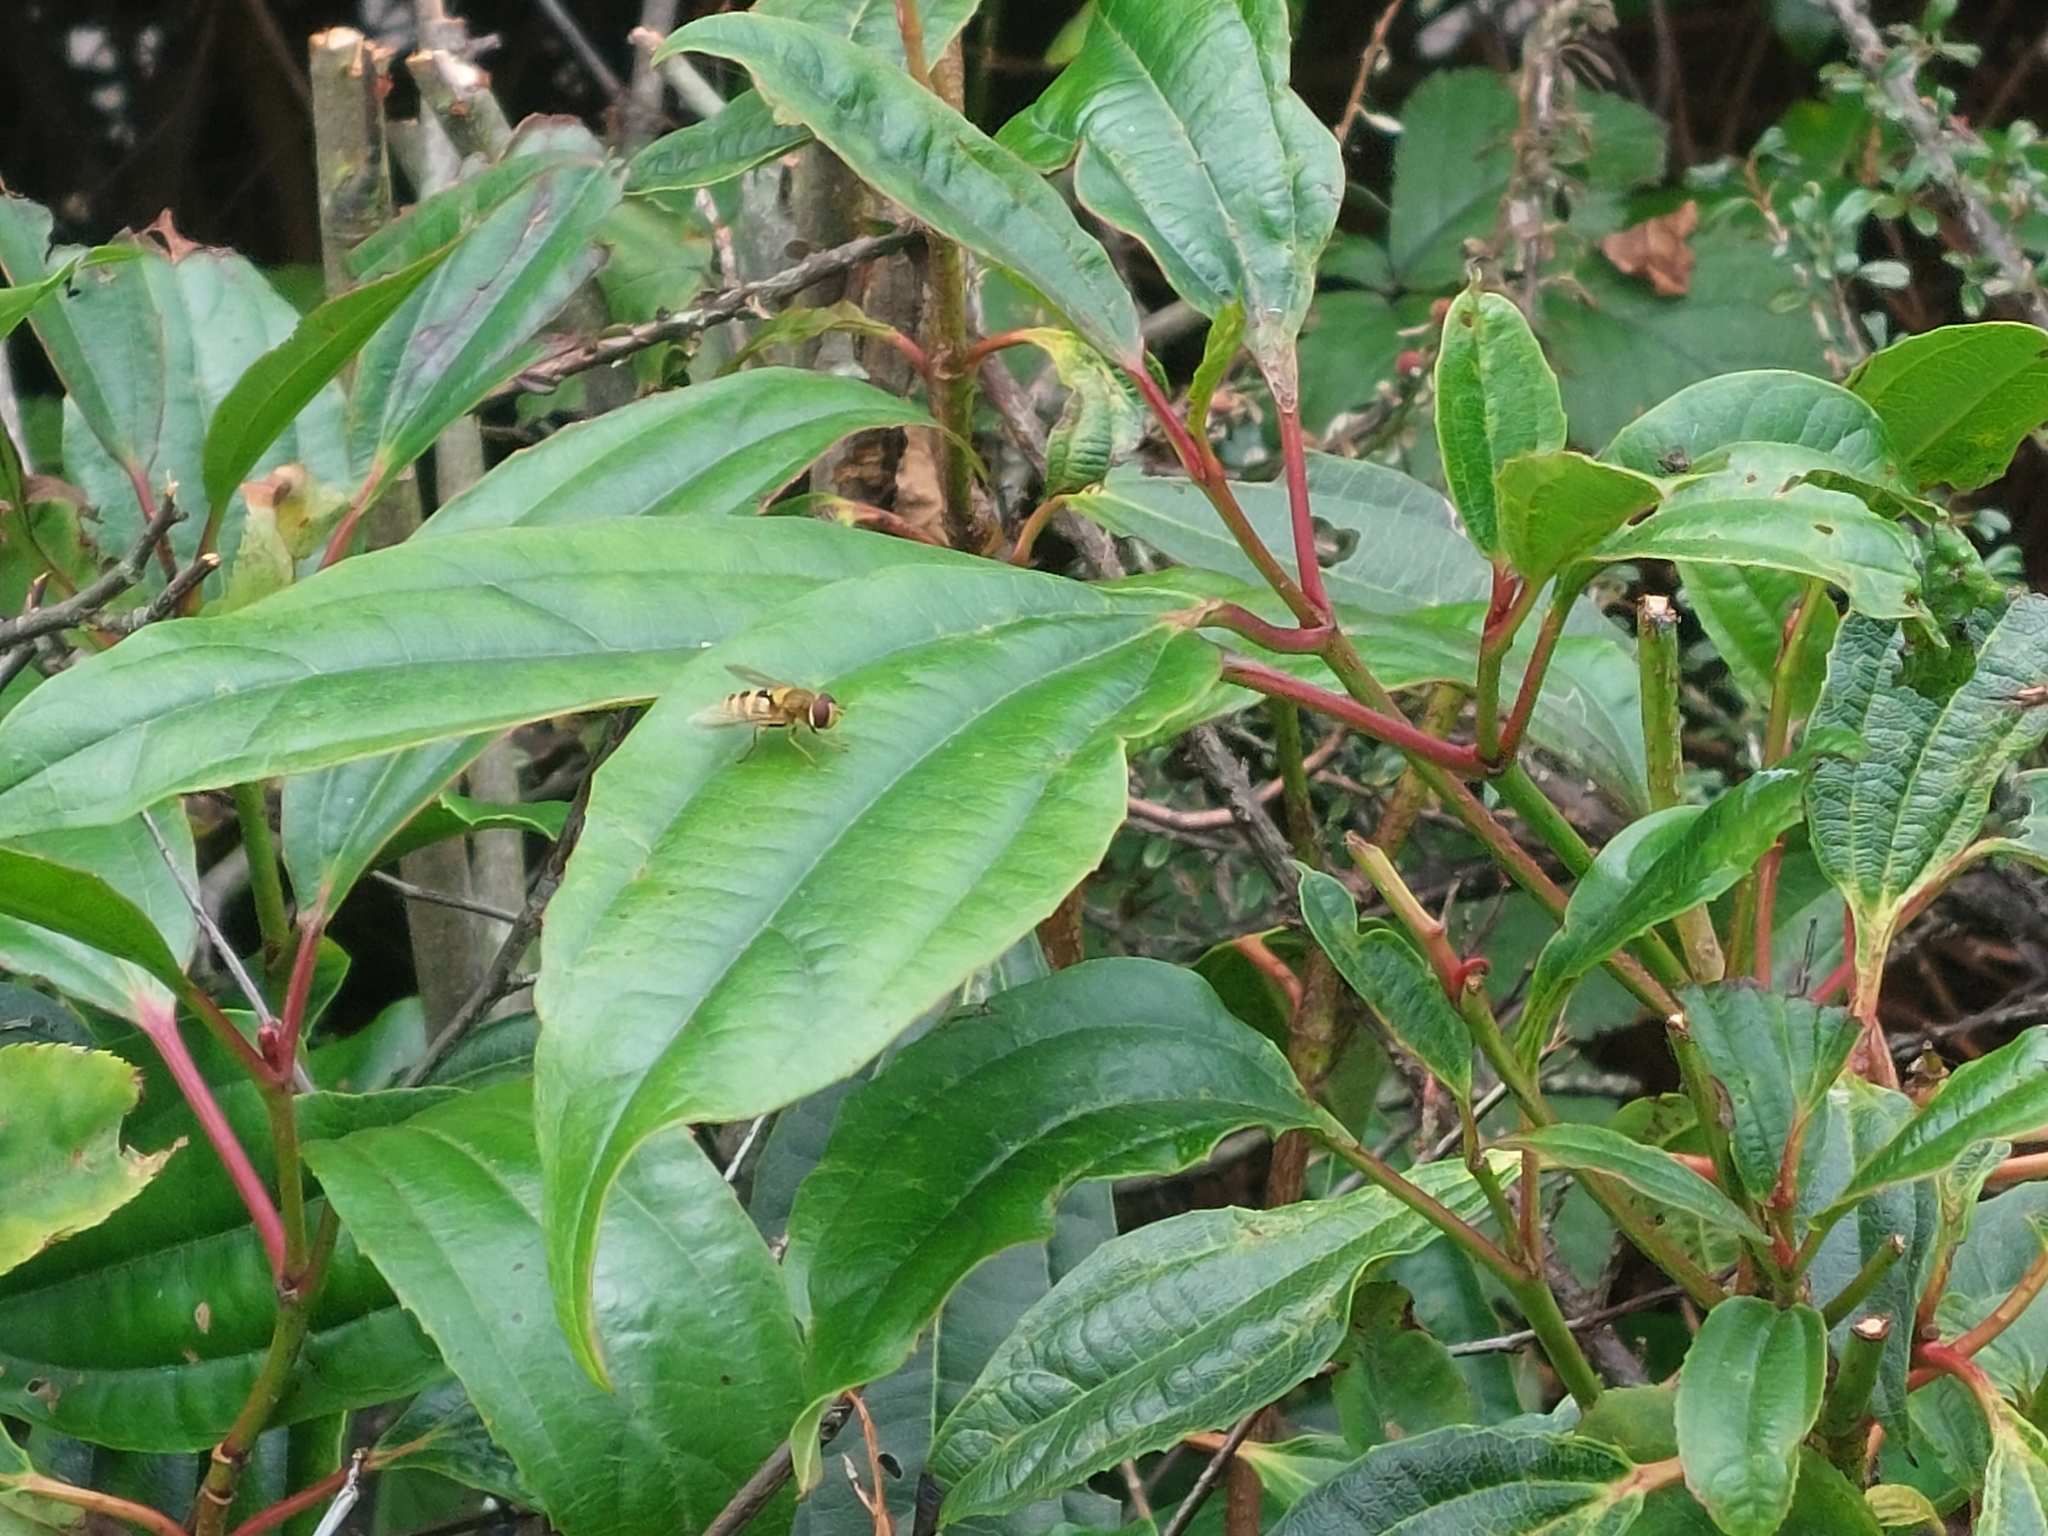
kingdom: Animalia
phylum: Arthropoda
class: Insecta
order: Diptera
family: Syrphidae
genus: Syrphus
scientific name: Syrphus
